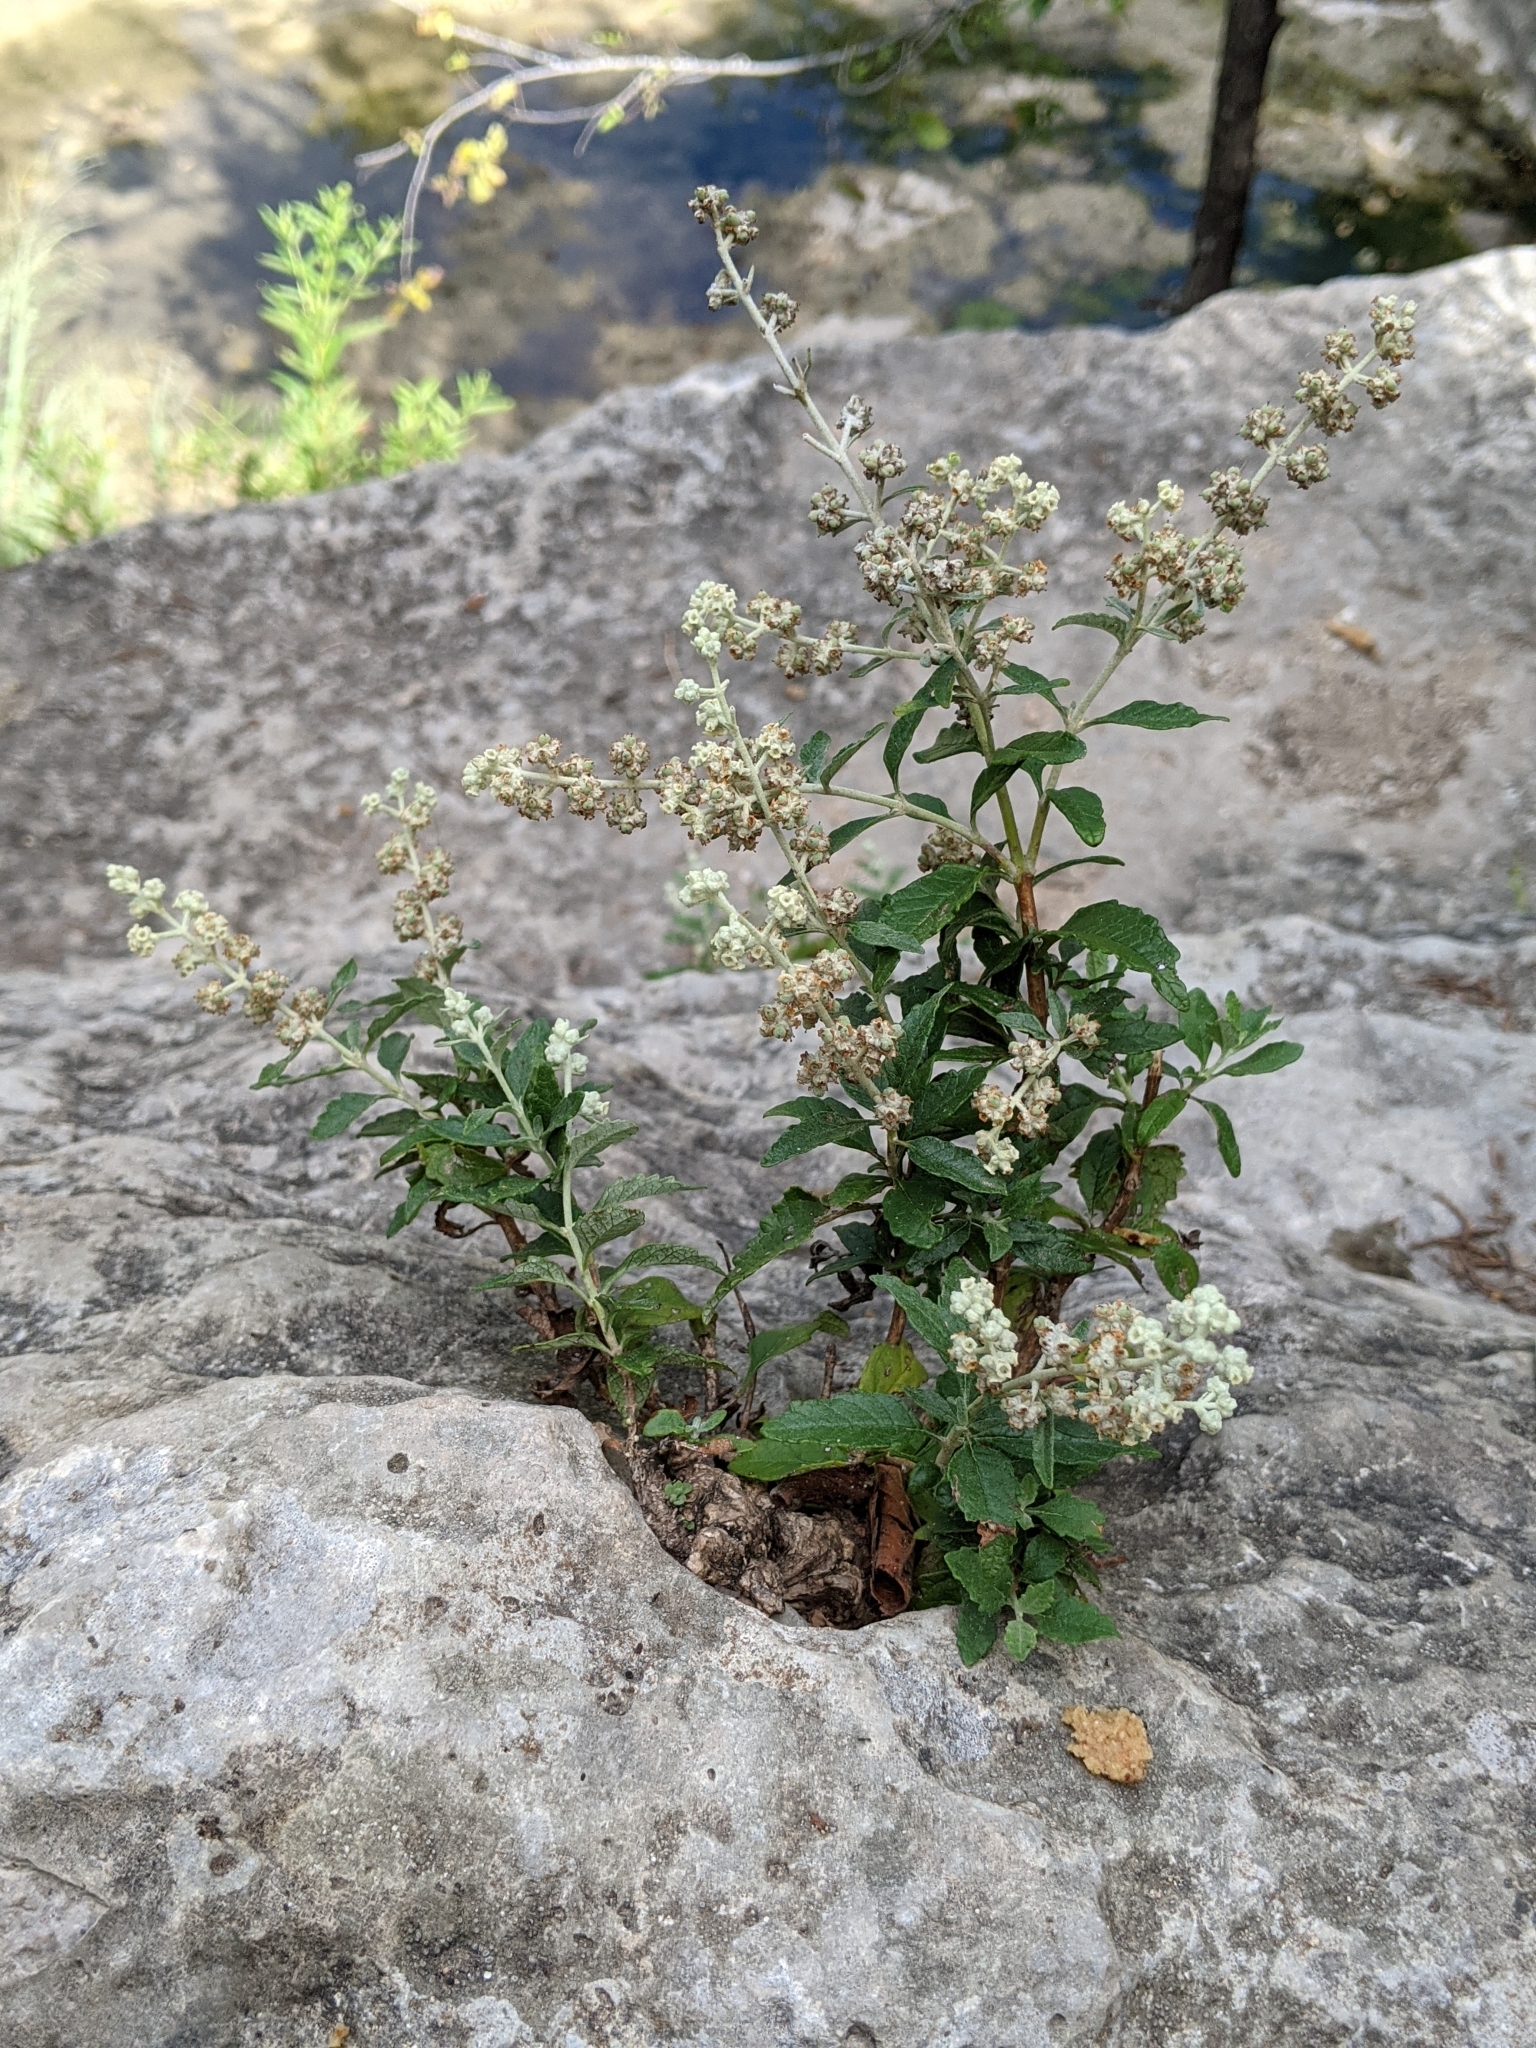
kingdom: Plantae
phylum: Tracheophyta
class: Magnoliopsida
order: Lamiales
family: Scrophulariaceae
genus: Buddleja
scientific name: Buddleja racemosa
